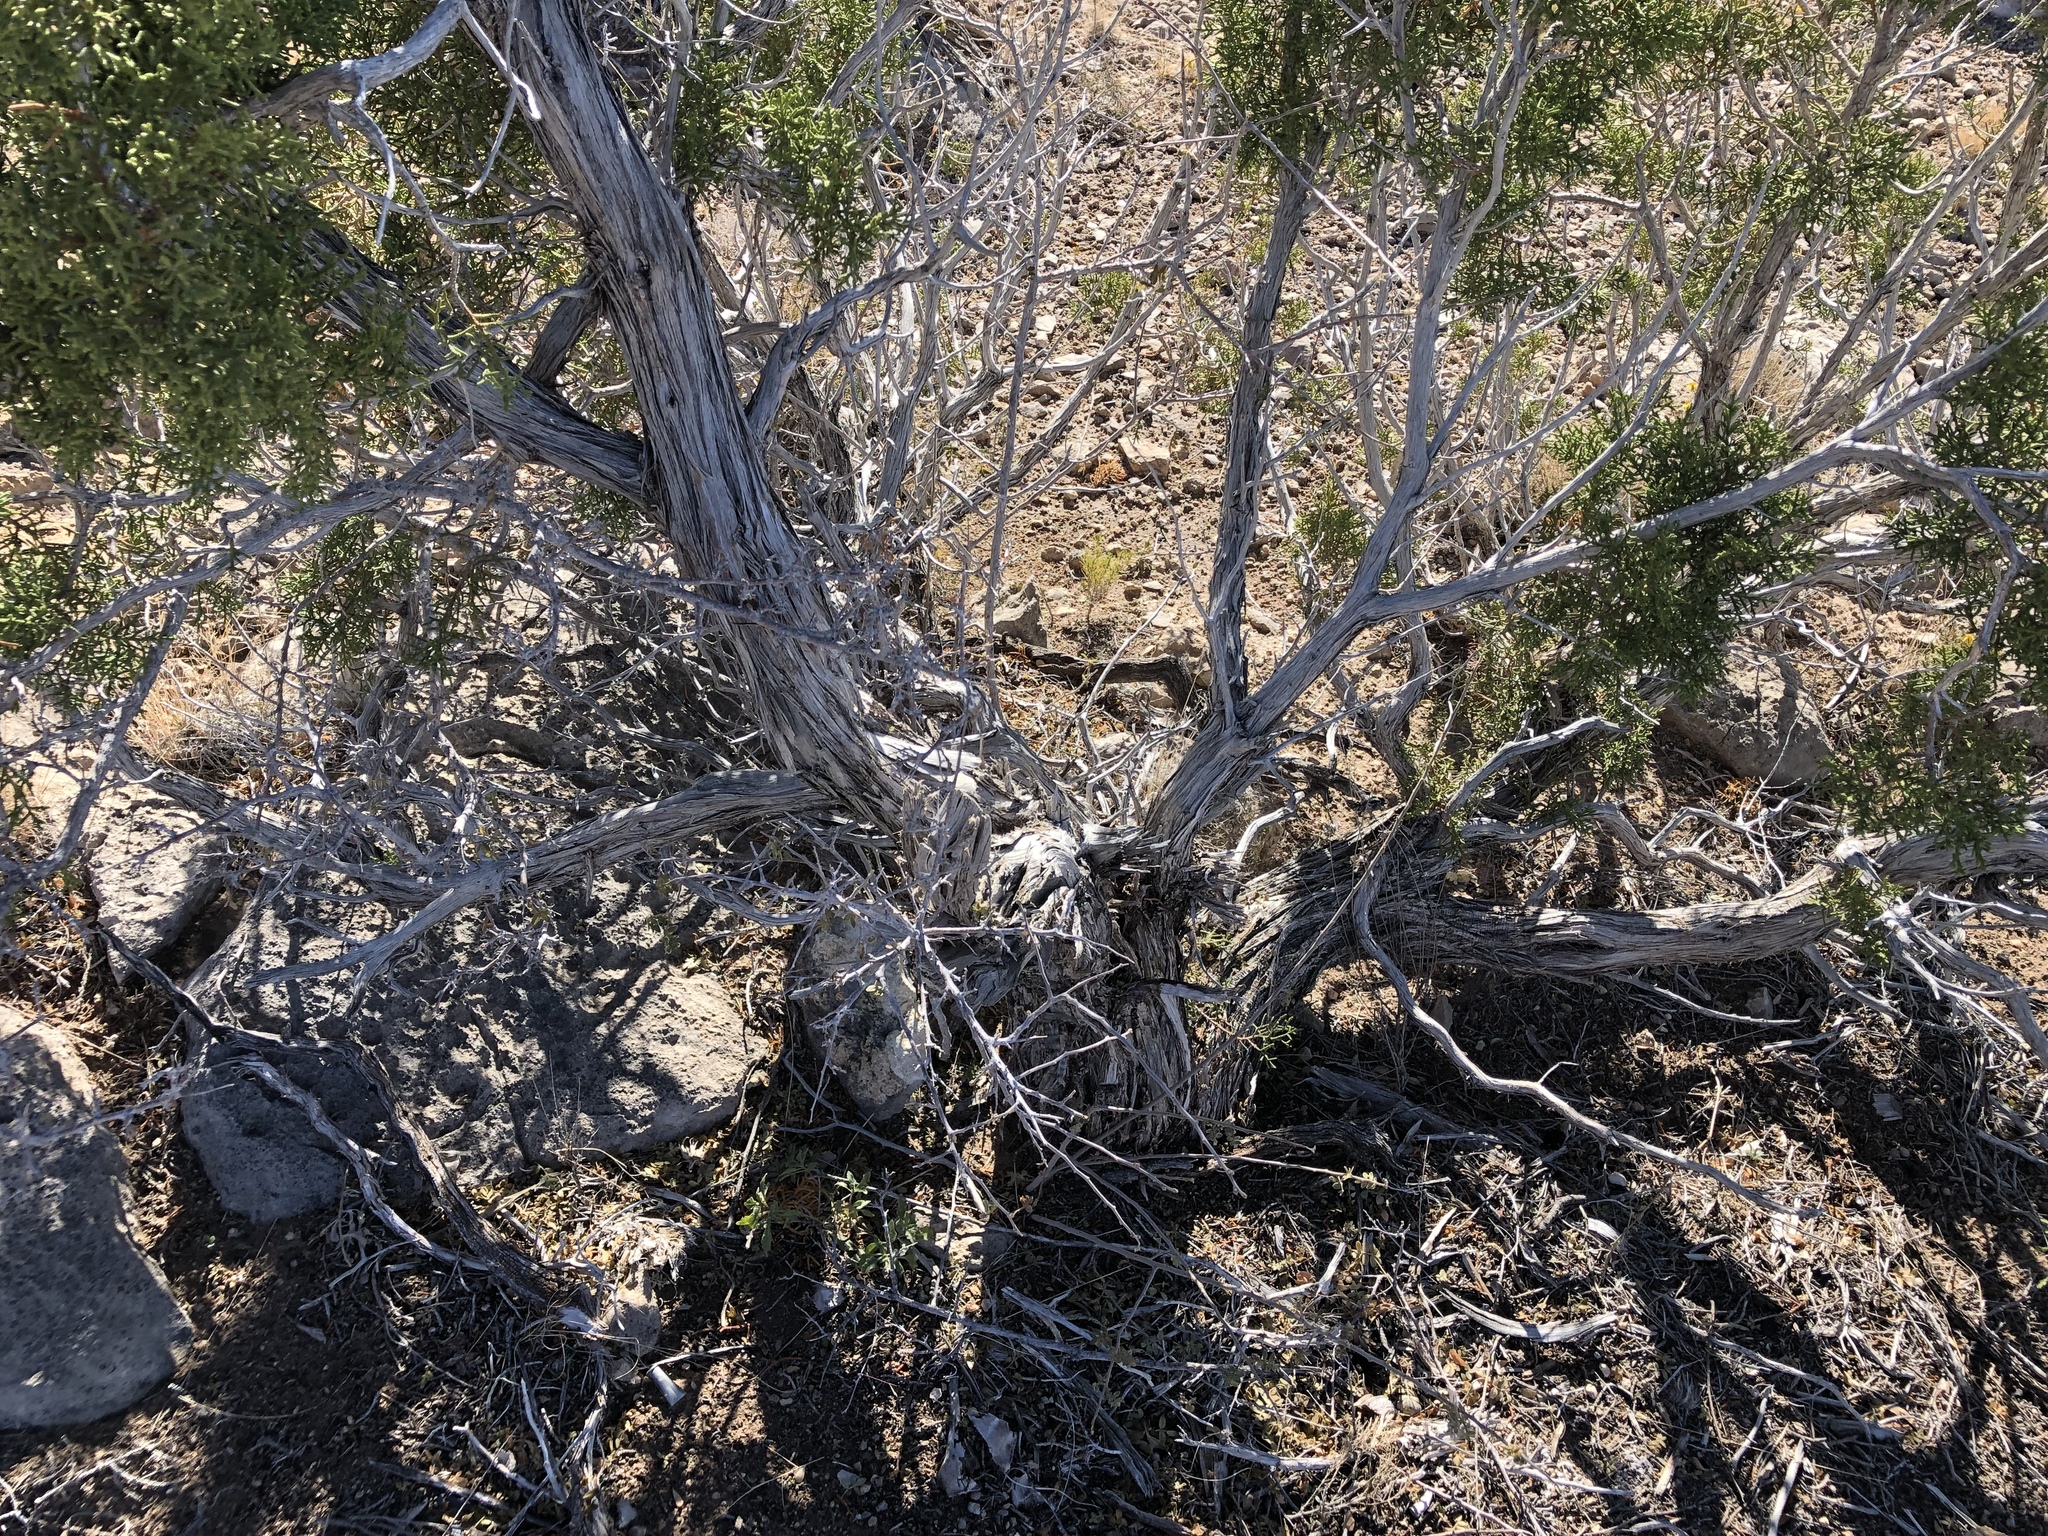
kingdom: Plantae
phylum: Tracheophyta
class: Pinopsida
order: Pinales
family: Cupressaceae
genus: Juniperus
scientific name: Juniperus monosperma
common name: One-seed juniper
